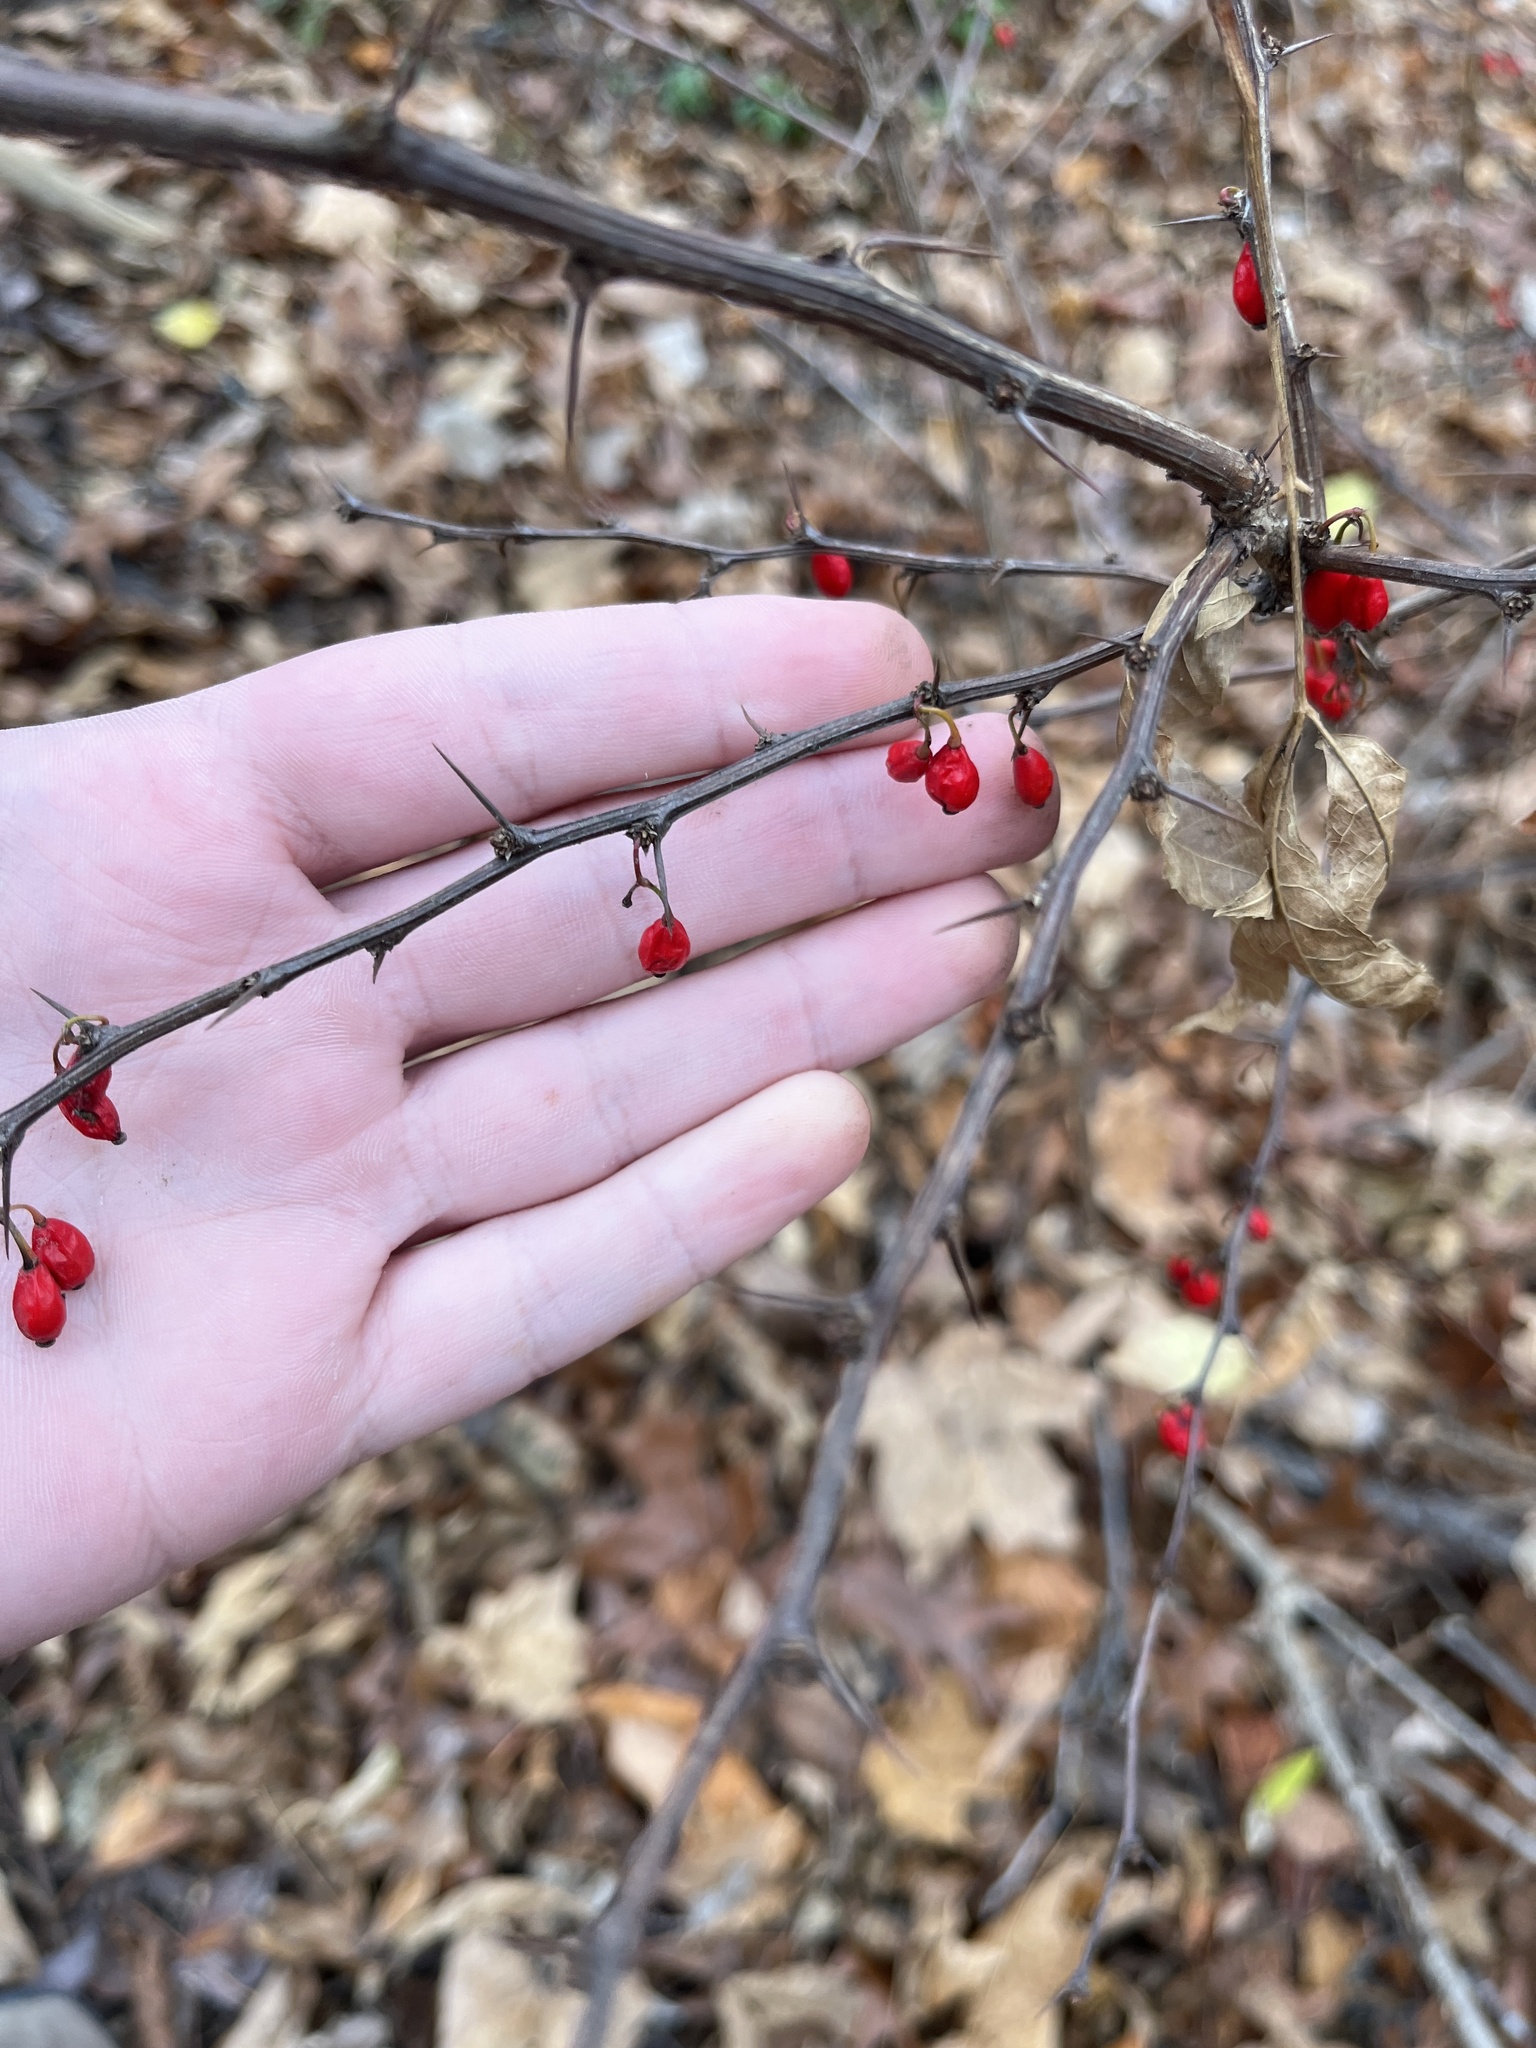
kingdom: Plantae
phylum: Tracheophyta
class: Magnoliopsida
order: Ranunculales
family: Berberidaceae
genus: Berberis
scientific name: Berberis thunbergii
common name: Japanese barberry
